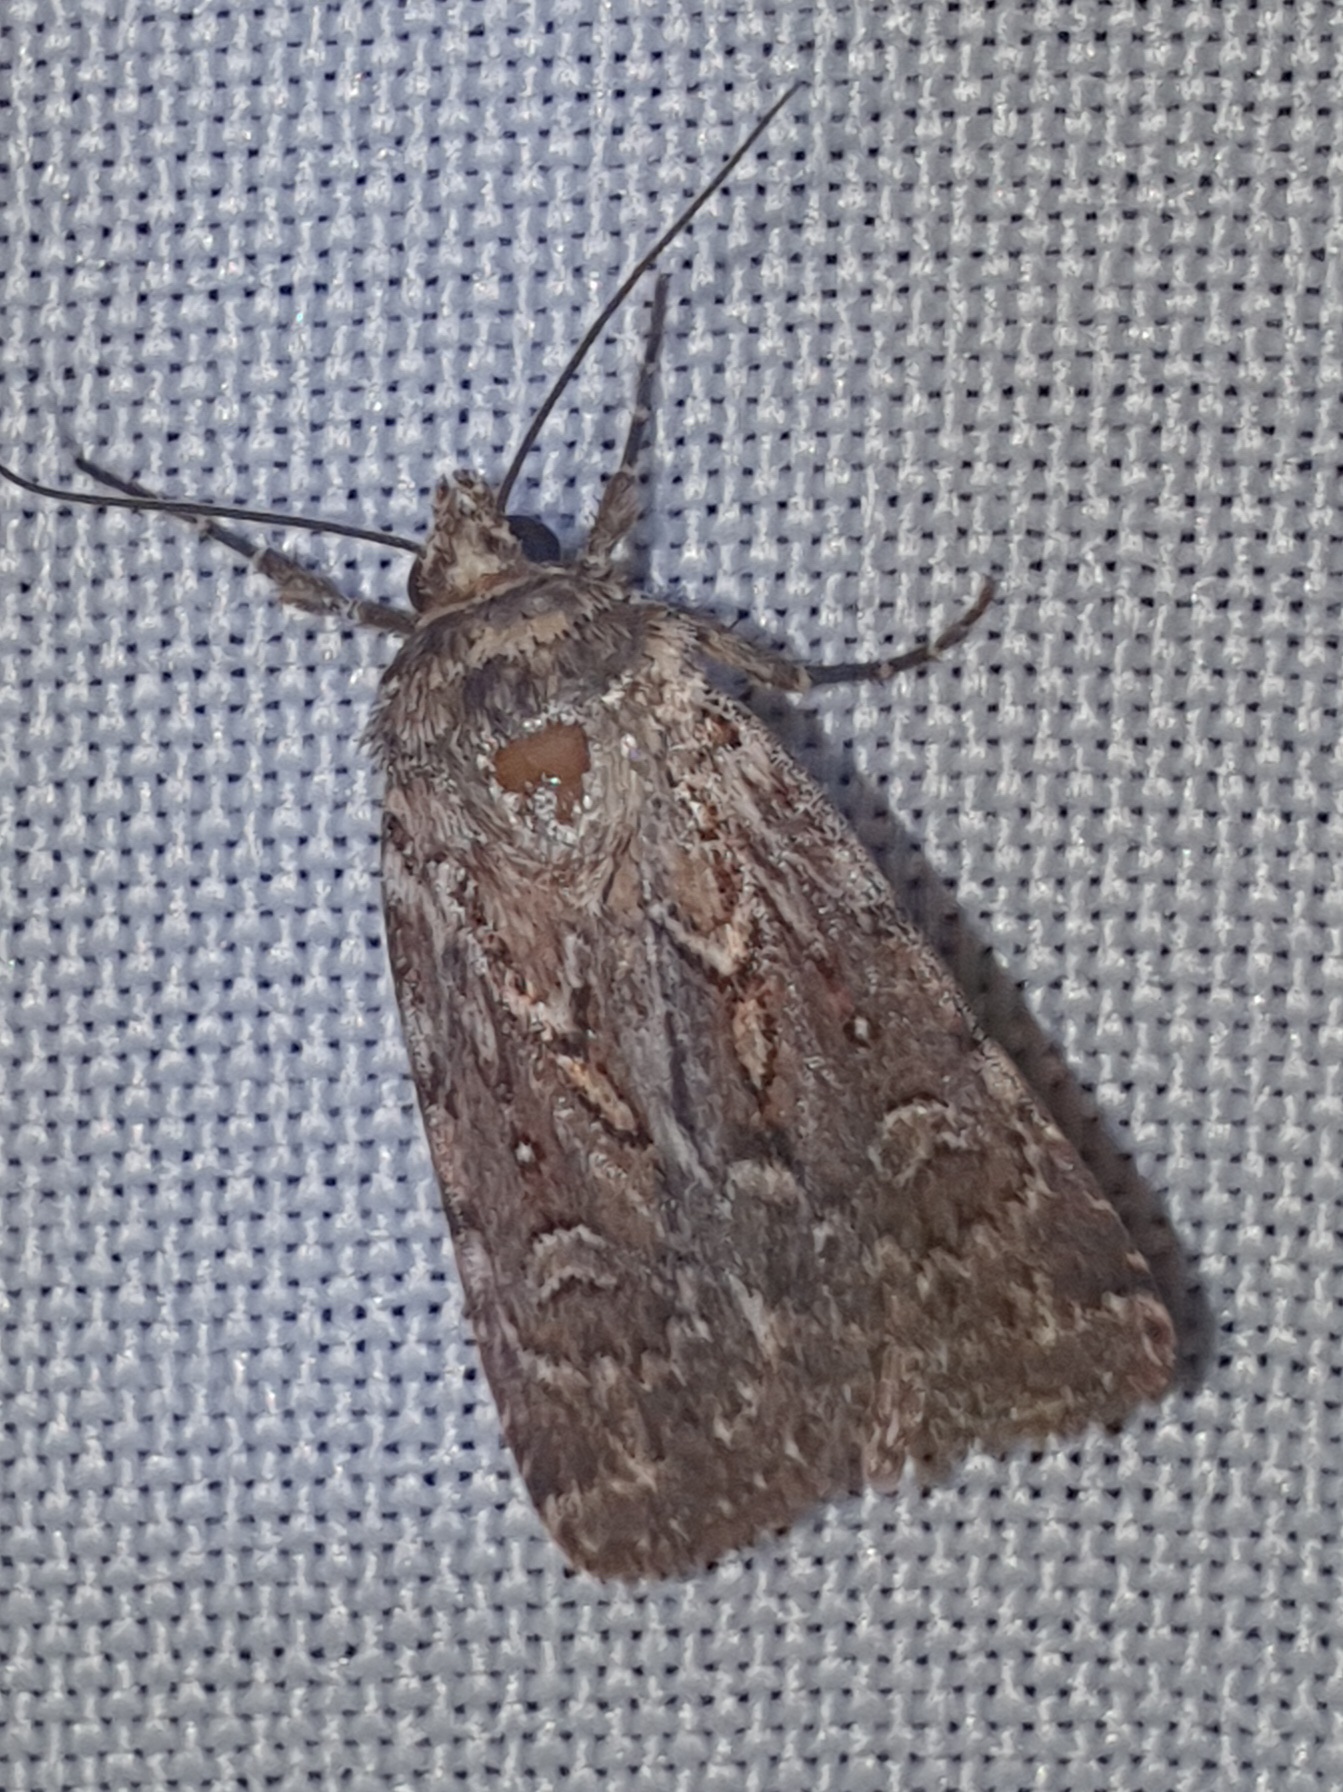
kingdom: Animalia
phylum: Arthropoda
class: Insecta
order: Lepidoptera
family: Noctuidae
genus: Lycophotia
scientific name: Lycophotia porphyrea
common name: True lover's knot
